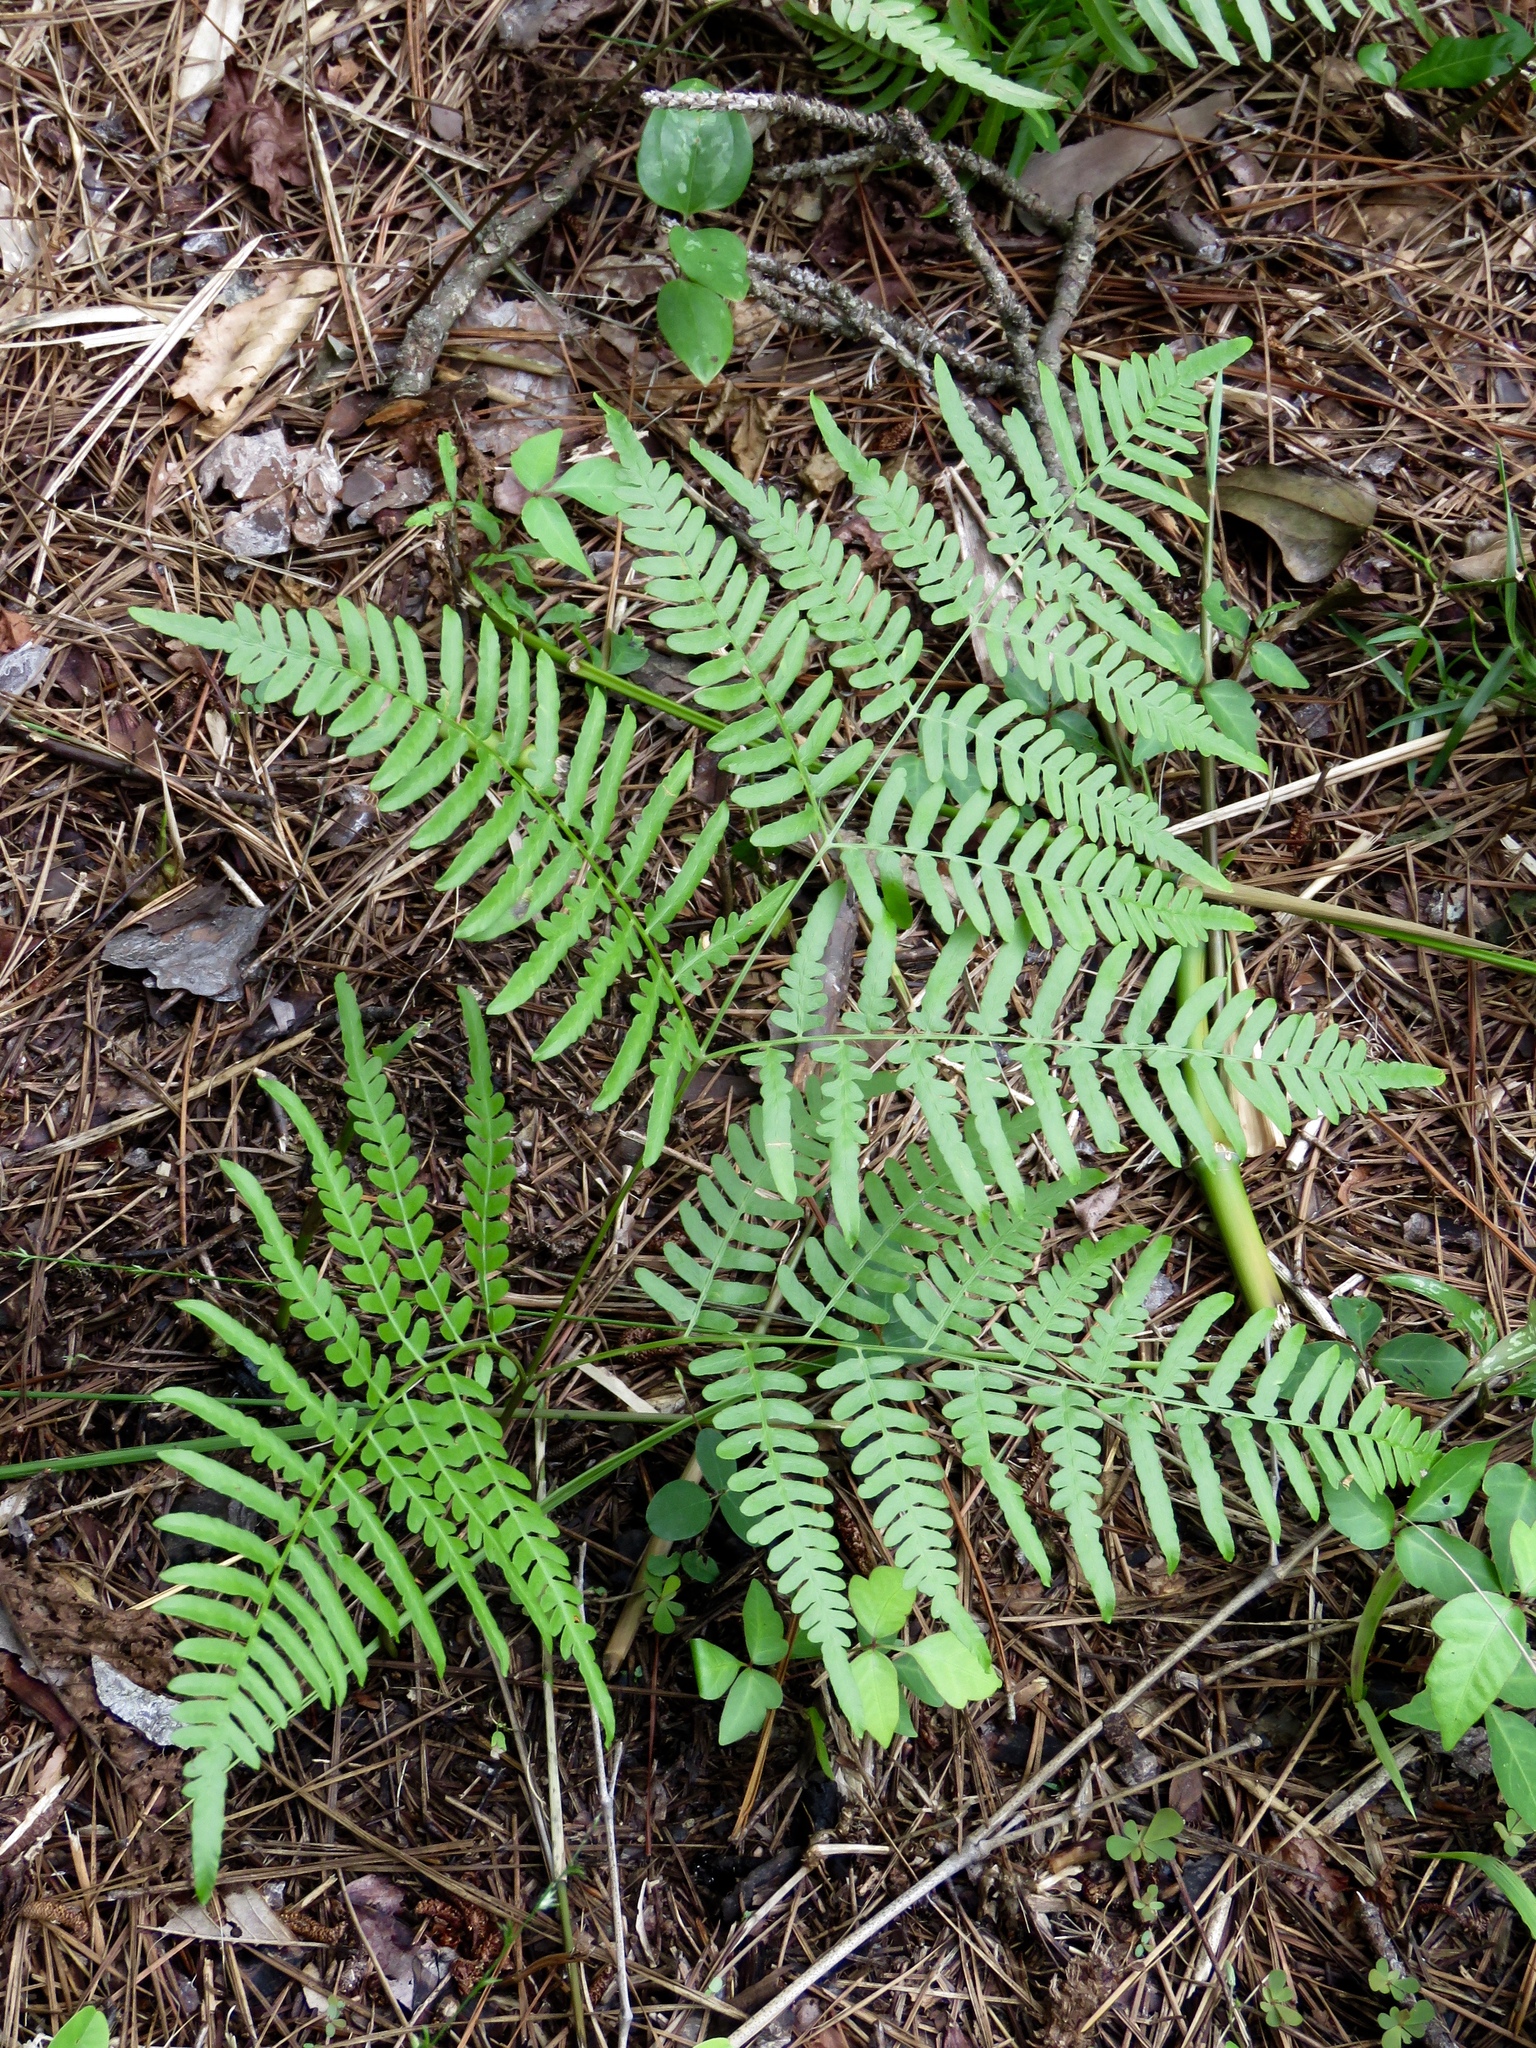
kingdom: Plantae
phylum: Tracheophyta
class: Polypodiopsida
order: Polypodiales
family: Dennstaedtiaceae
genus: Pteridium
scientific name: Pteridium aquilinum
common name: Bracken
